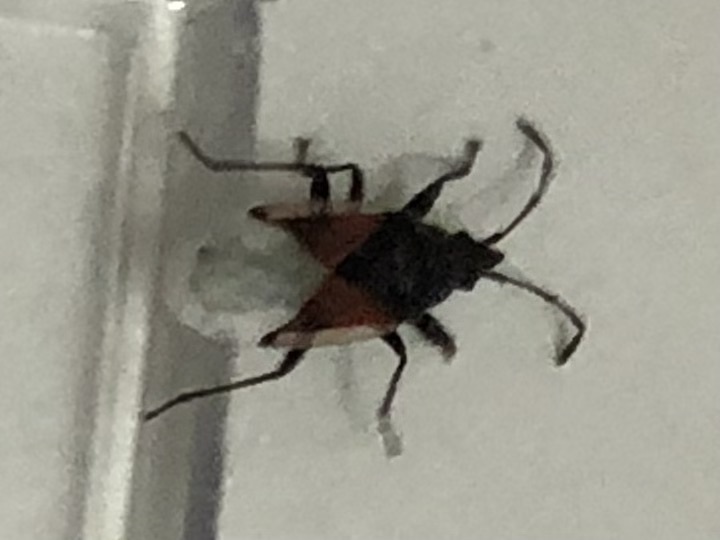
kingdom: Animalia
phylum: Arthropoda
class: Insecta
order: Hemiptera
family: Oxycarenidae
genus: Oxycarenus
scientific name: Oxycarenus lavaterae
